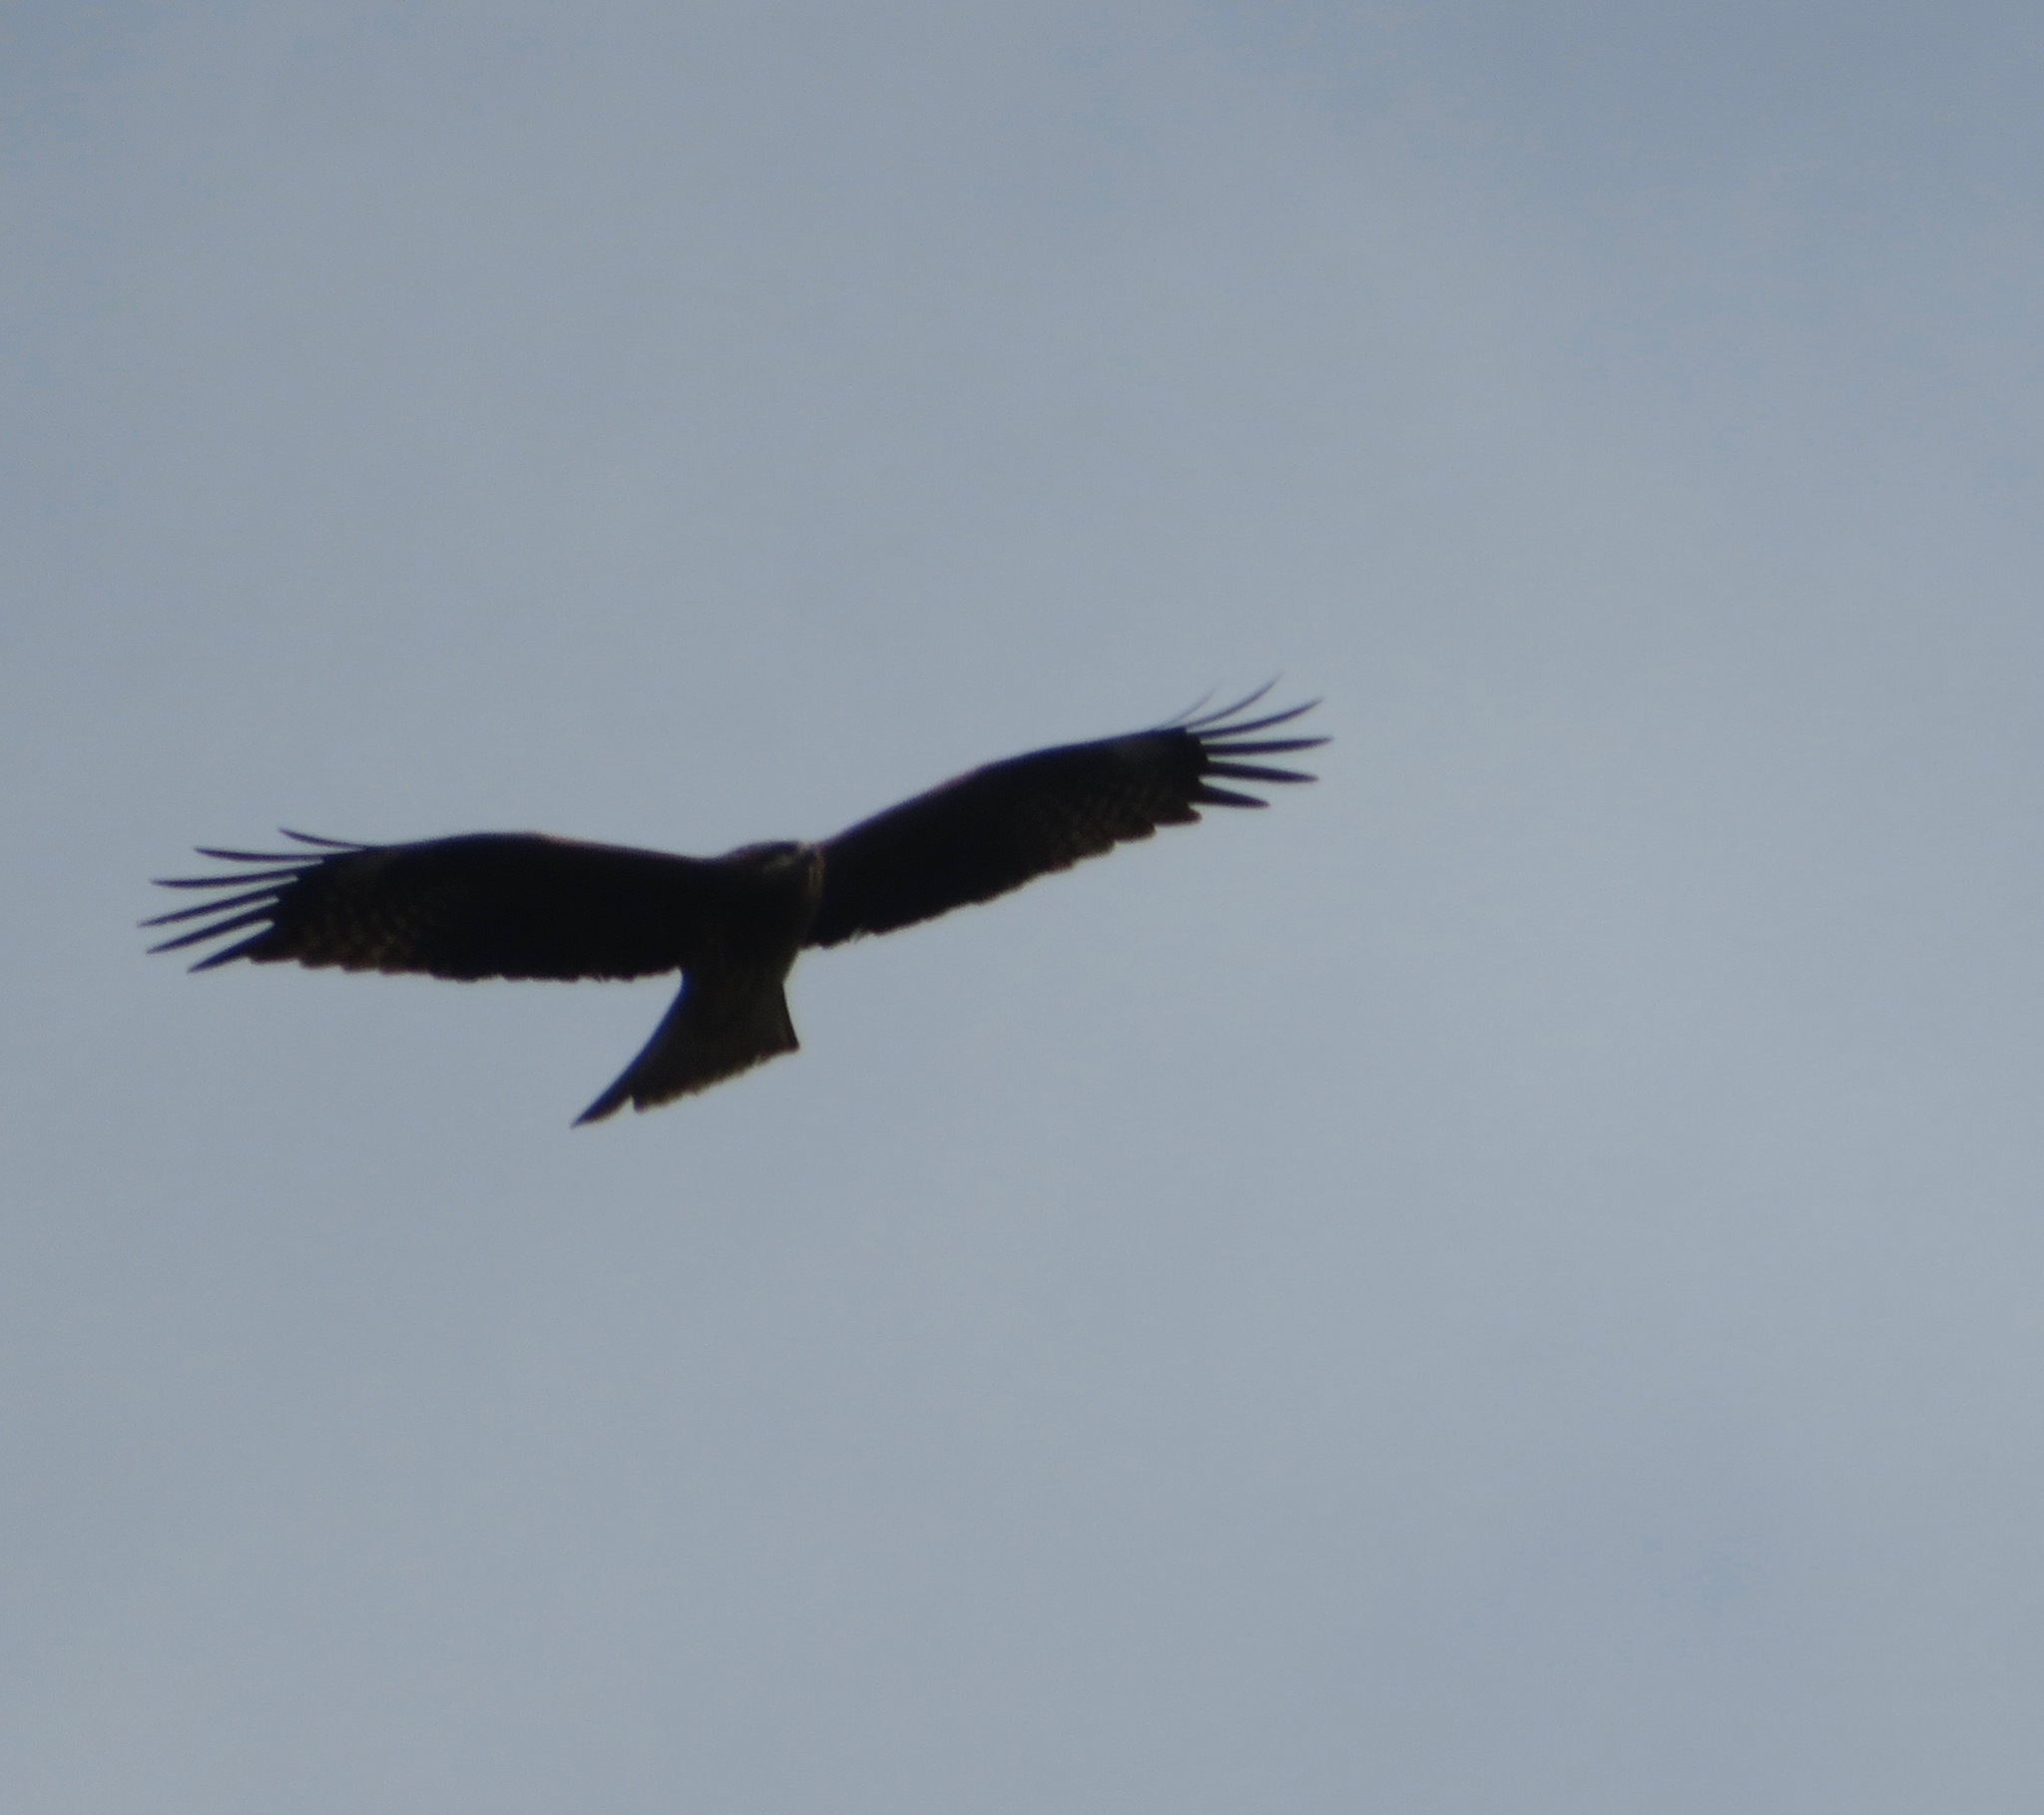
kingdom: Animalia
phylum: Chordata
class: Aves
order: Accipitriformes
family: Accipitridae
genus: Milvus
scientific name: Milvus migrans
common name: Black kite
